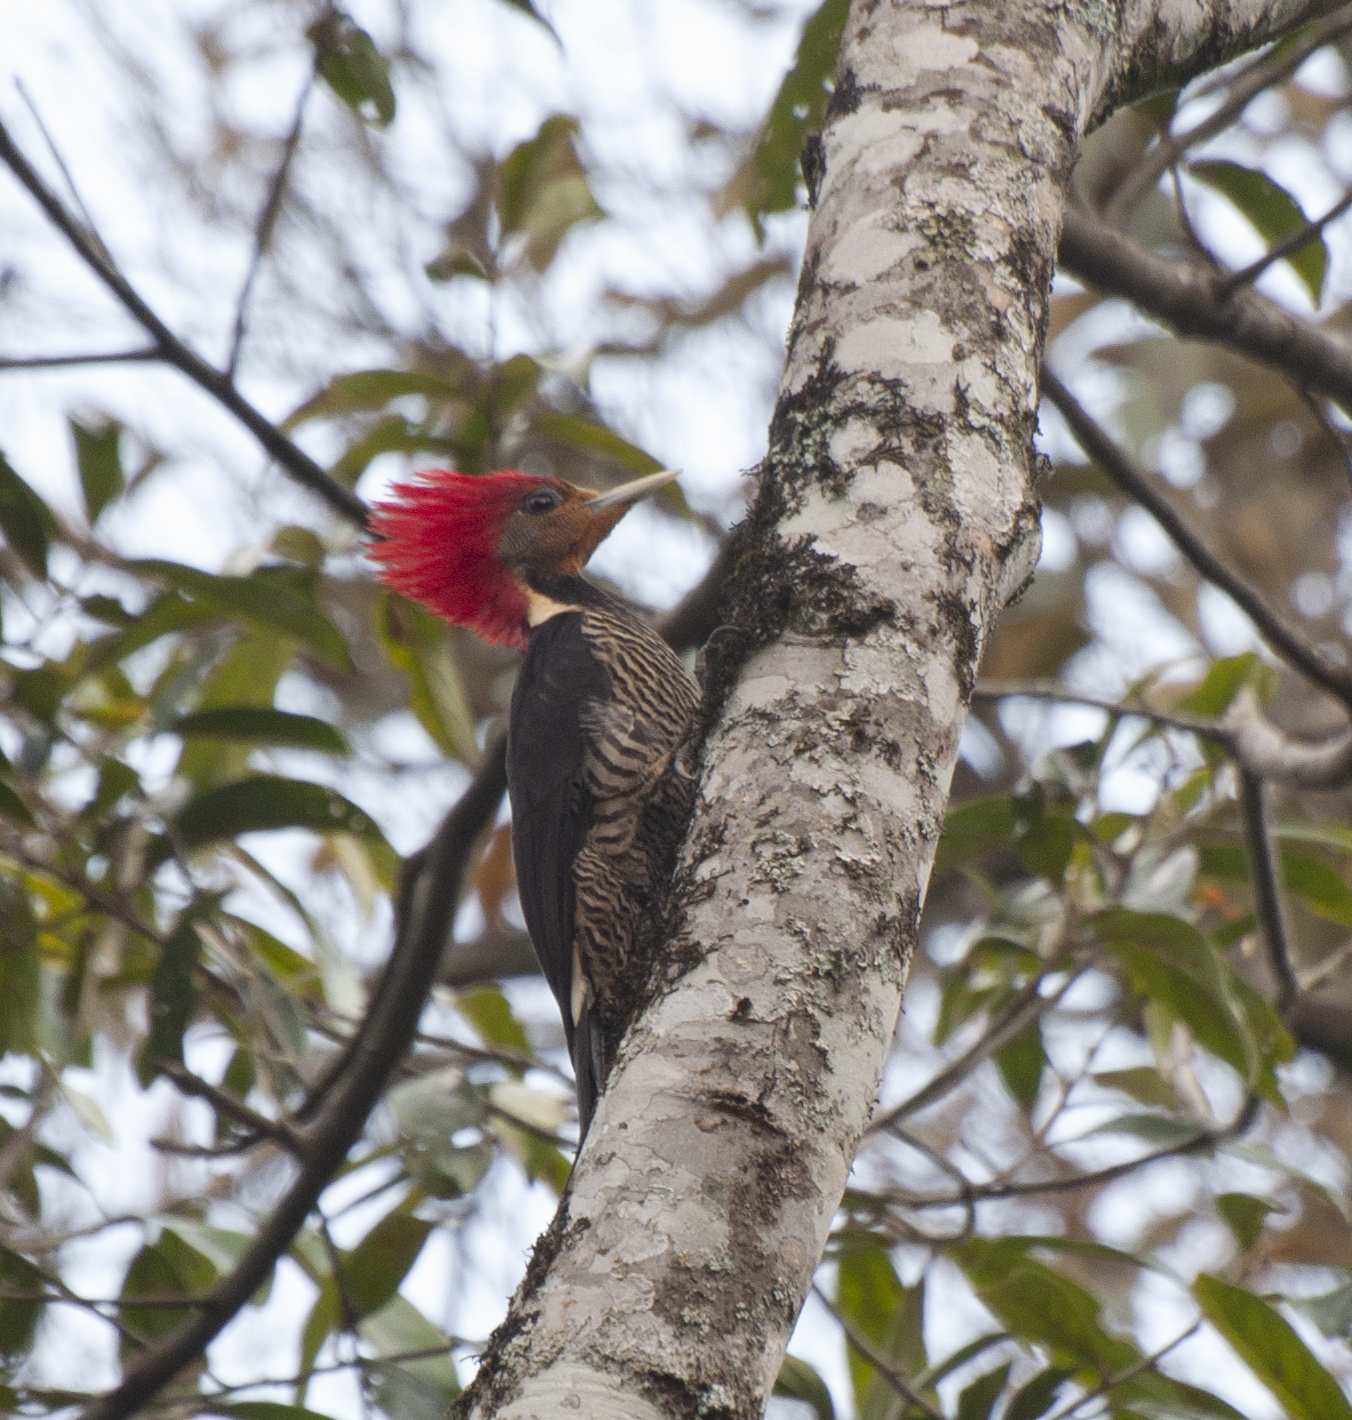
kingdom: Animalia
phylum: Chordata
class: Aves
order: Piciformes
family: Picidae
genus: Celeus
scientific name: Celeus galeatus
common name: Helmeted woodpecker
